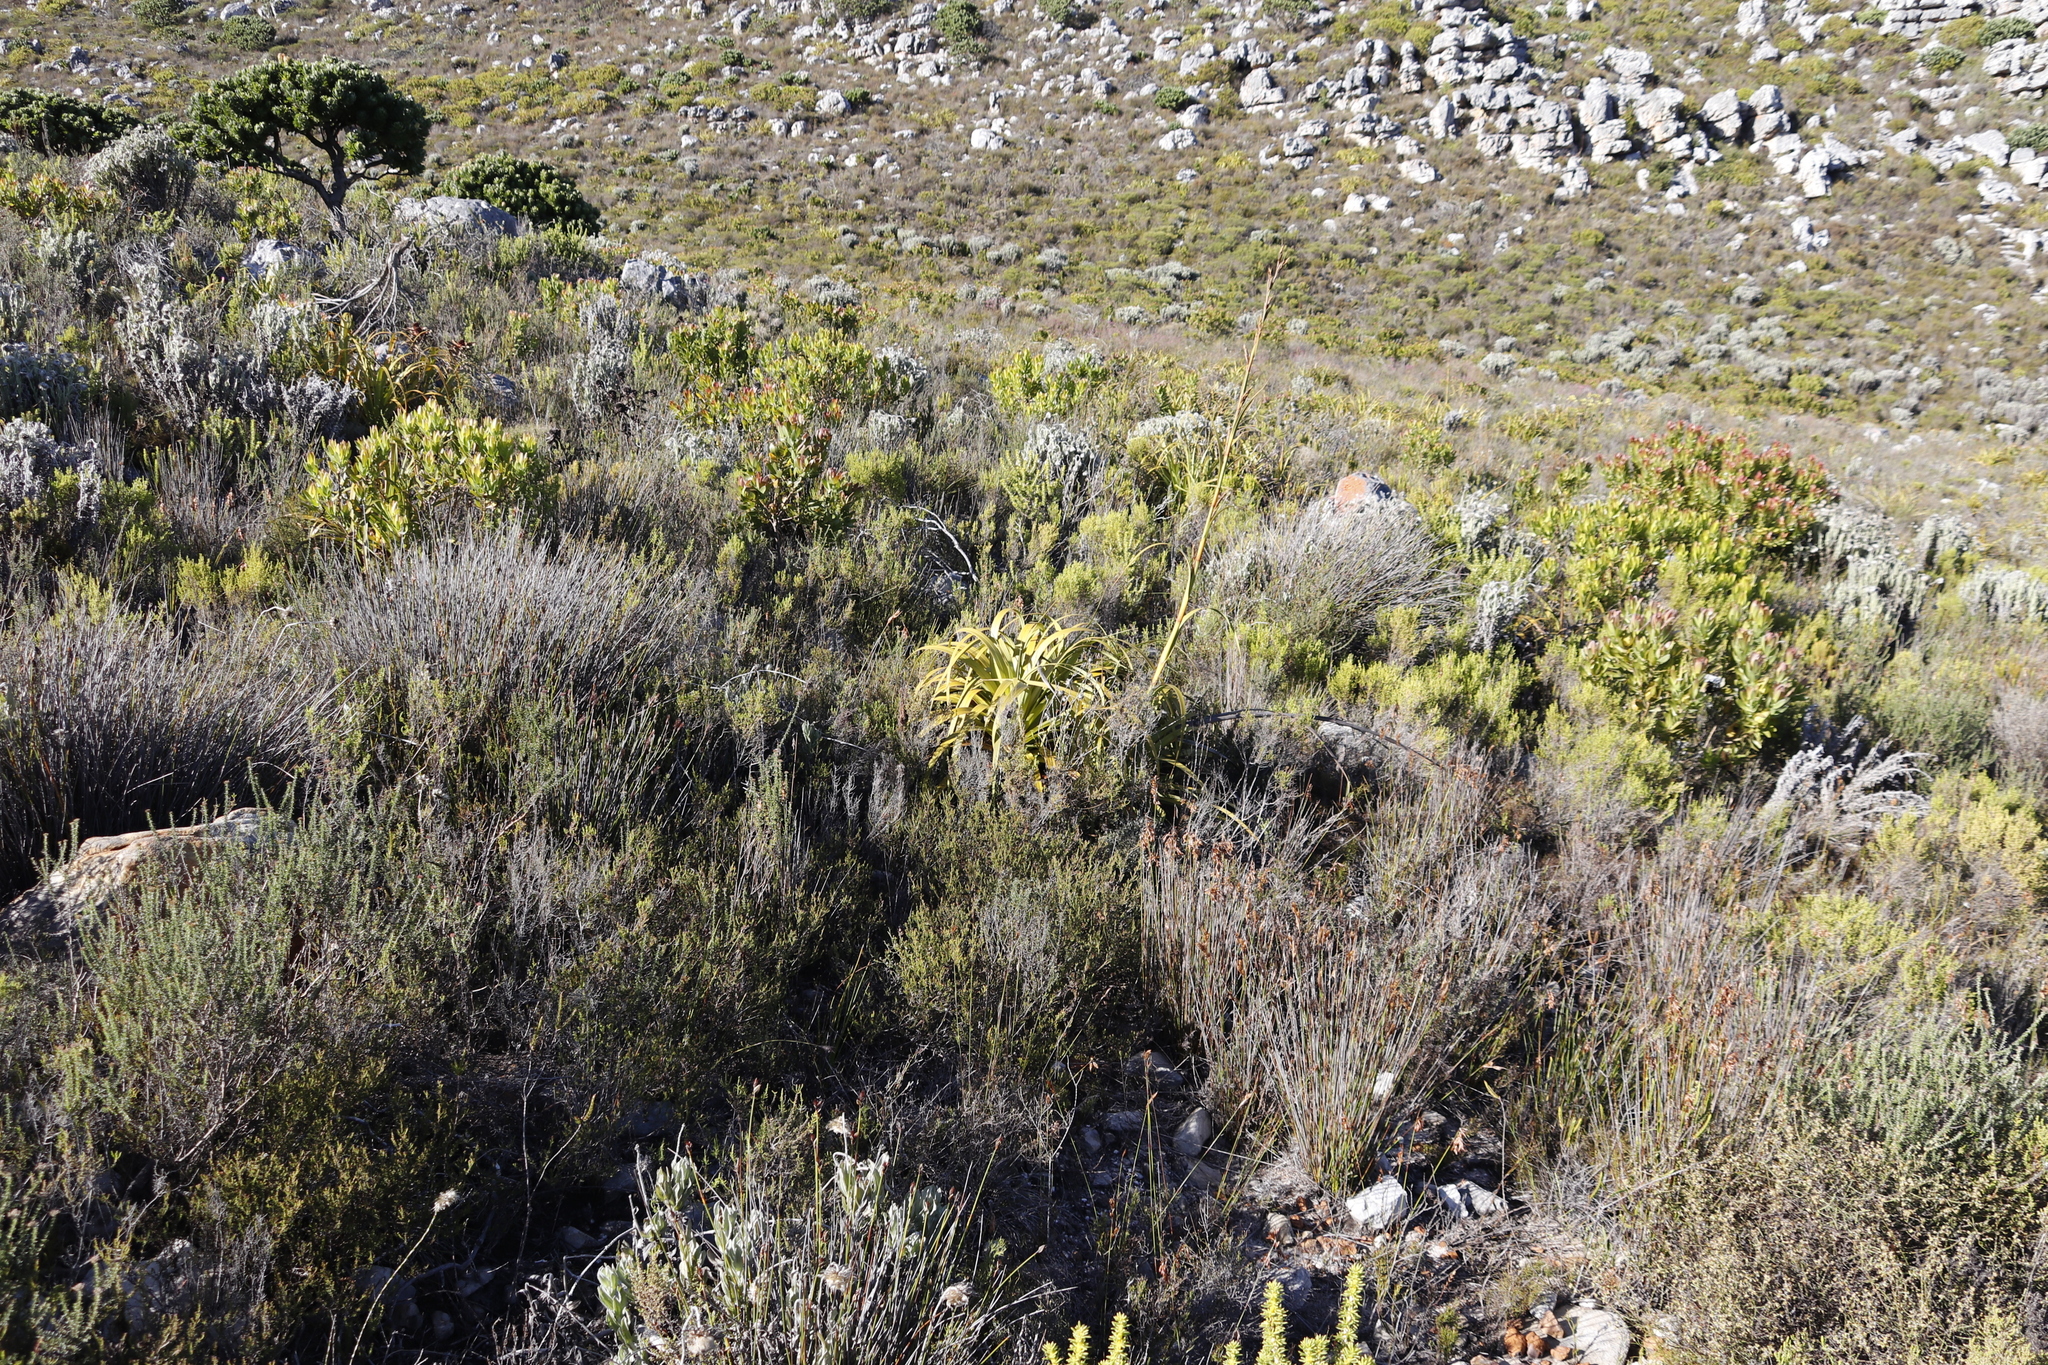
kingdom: Plantae
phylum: Tracheophyta
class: Liliopsida
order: Poales
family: Cyperaceae
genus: Tetraria
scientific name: Tetraria thermalis
